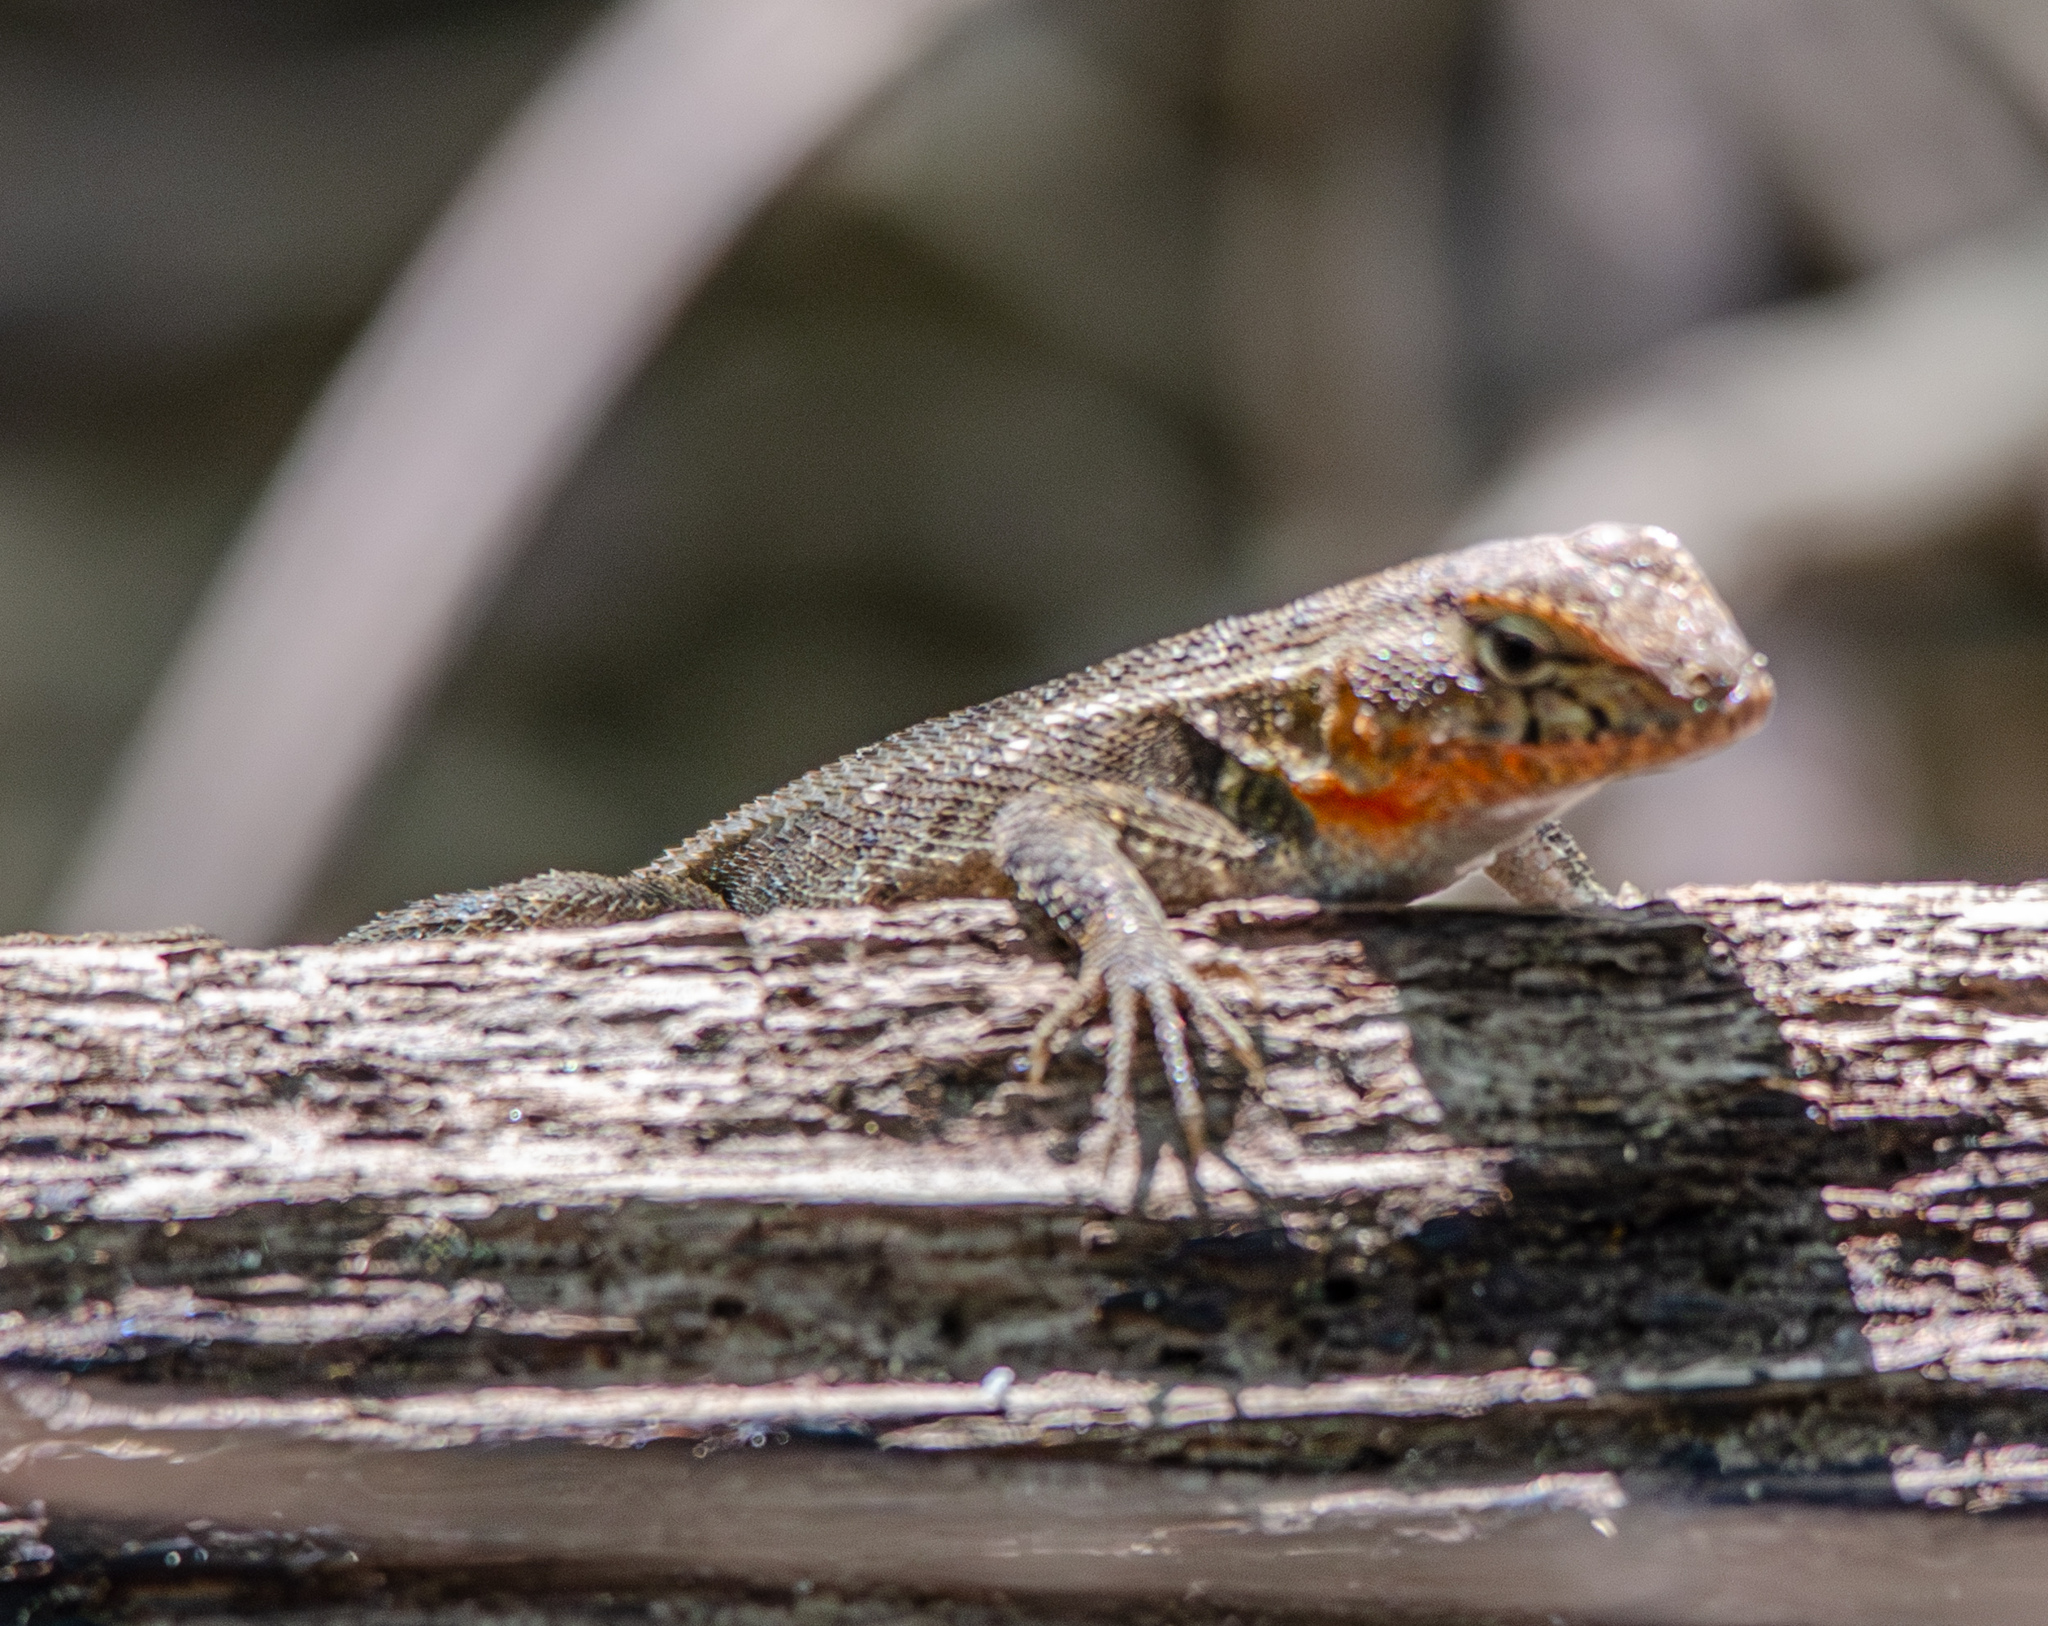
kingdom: Animalia
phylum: Chordata
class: Squamata
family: Phrynosomatidae
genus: Sceloporus
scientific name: Sceloporus variabilis
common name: Rosebelly lizard
